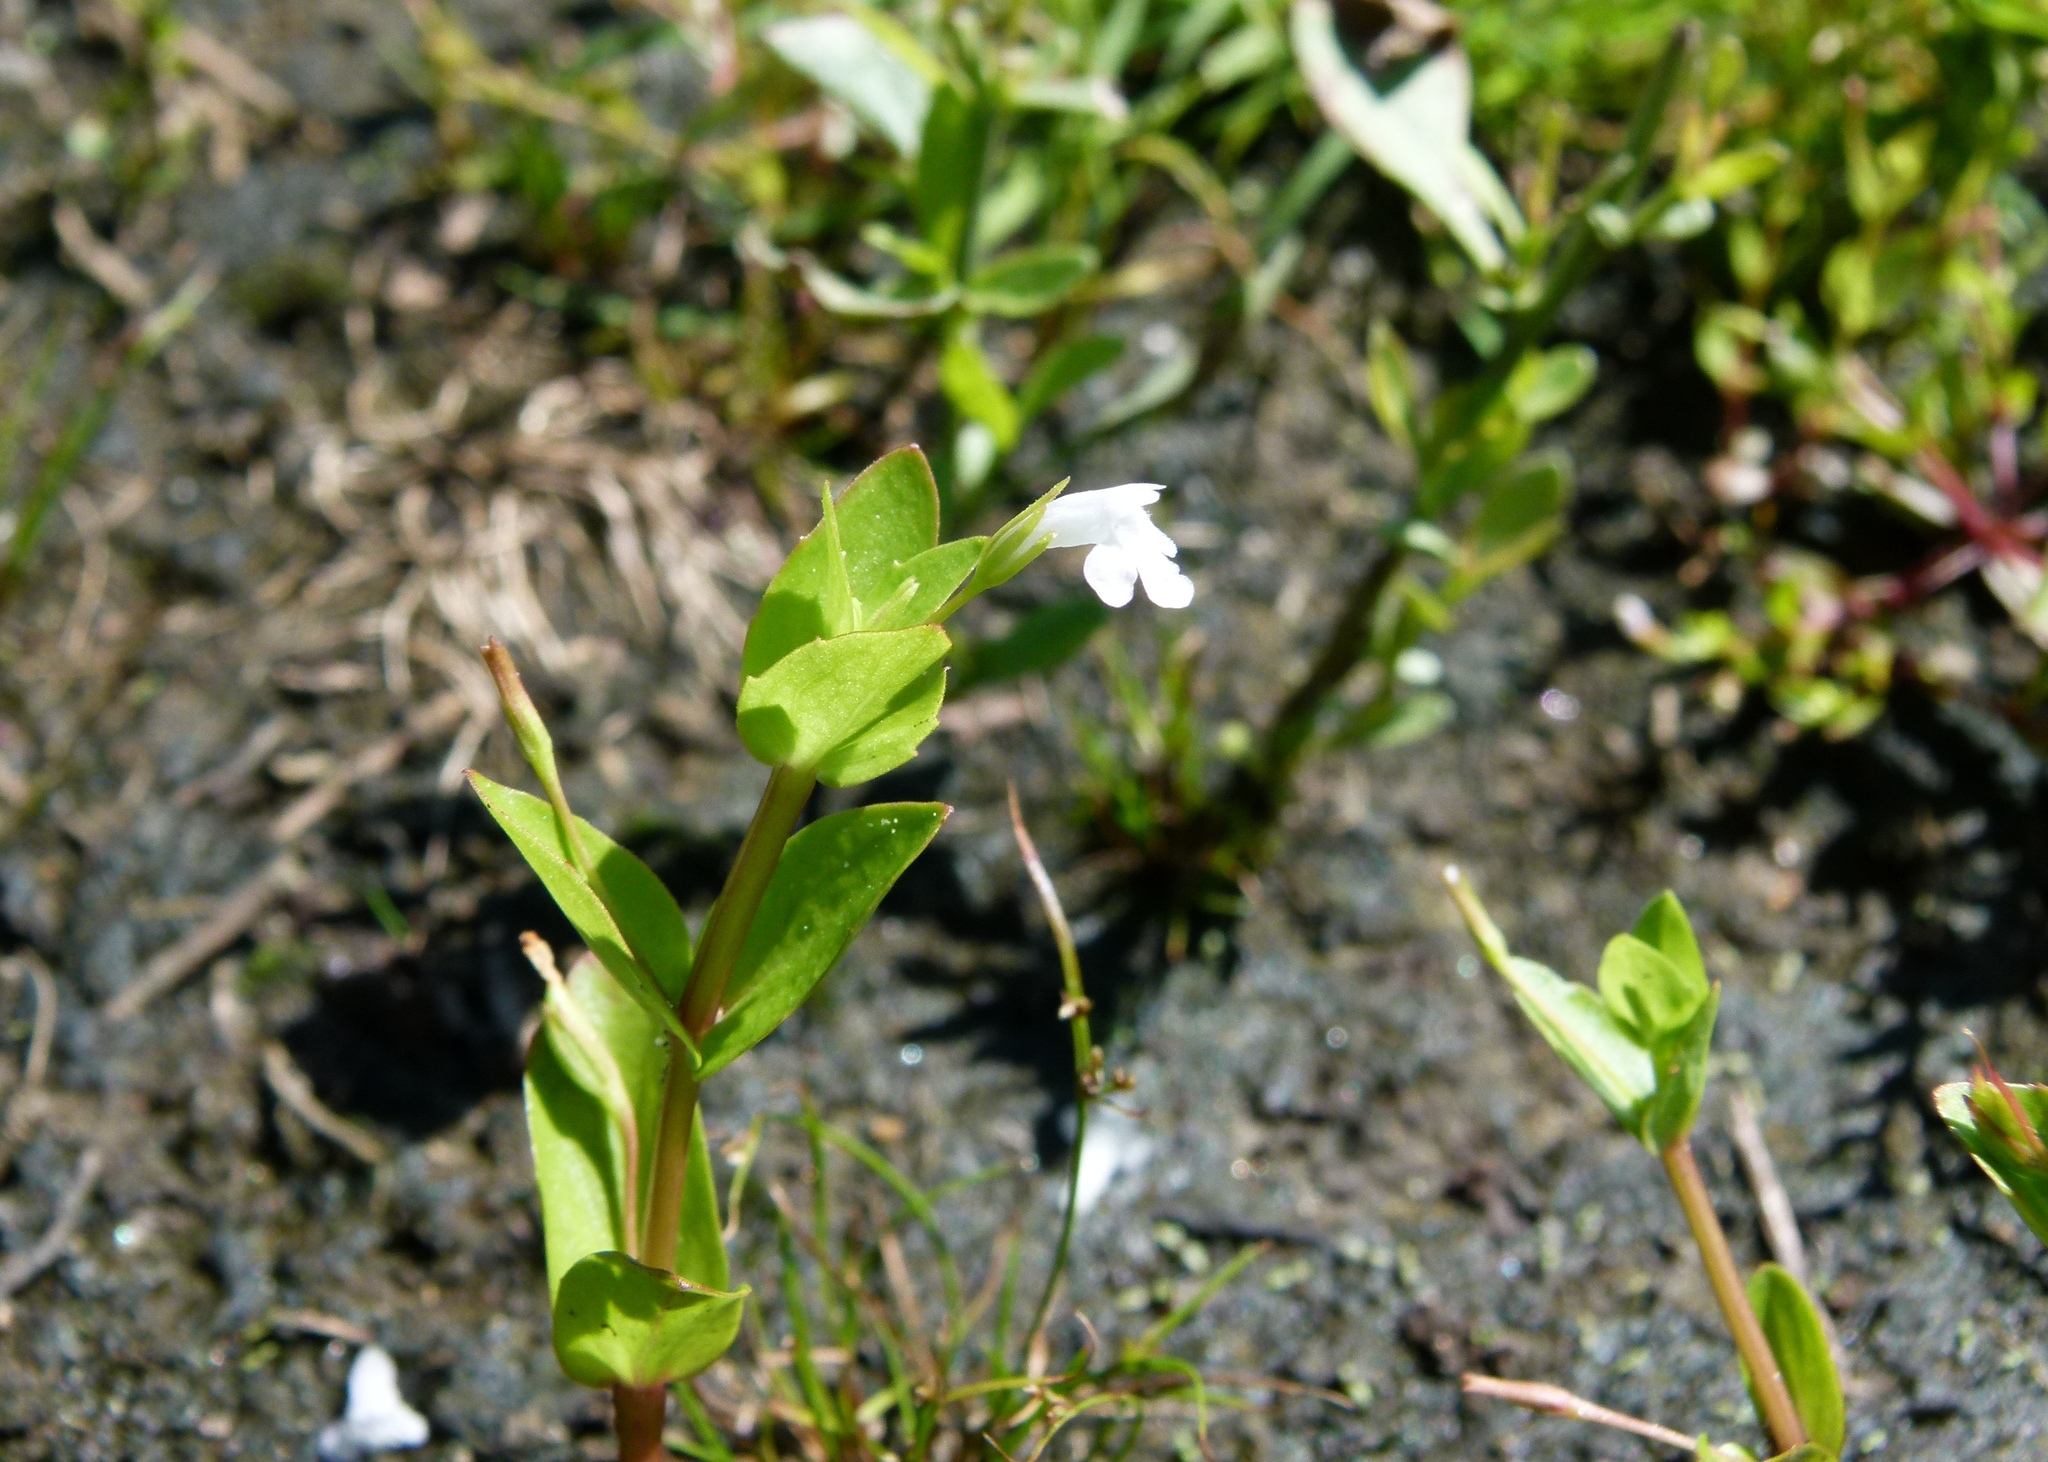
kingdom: Plantae
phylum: Tracheophyta
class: Magnoliopsida
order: Lamiales
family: Linderniaceae
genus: Lindernia
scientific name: Lindernia dubia
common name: Annual false pimpernel
